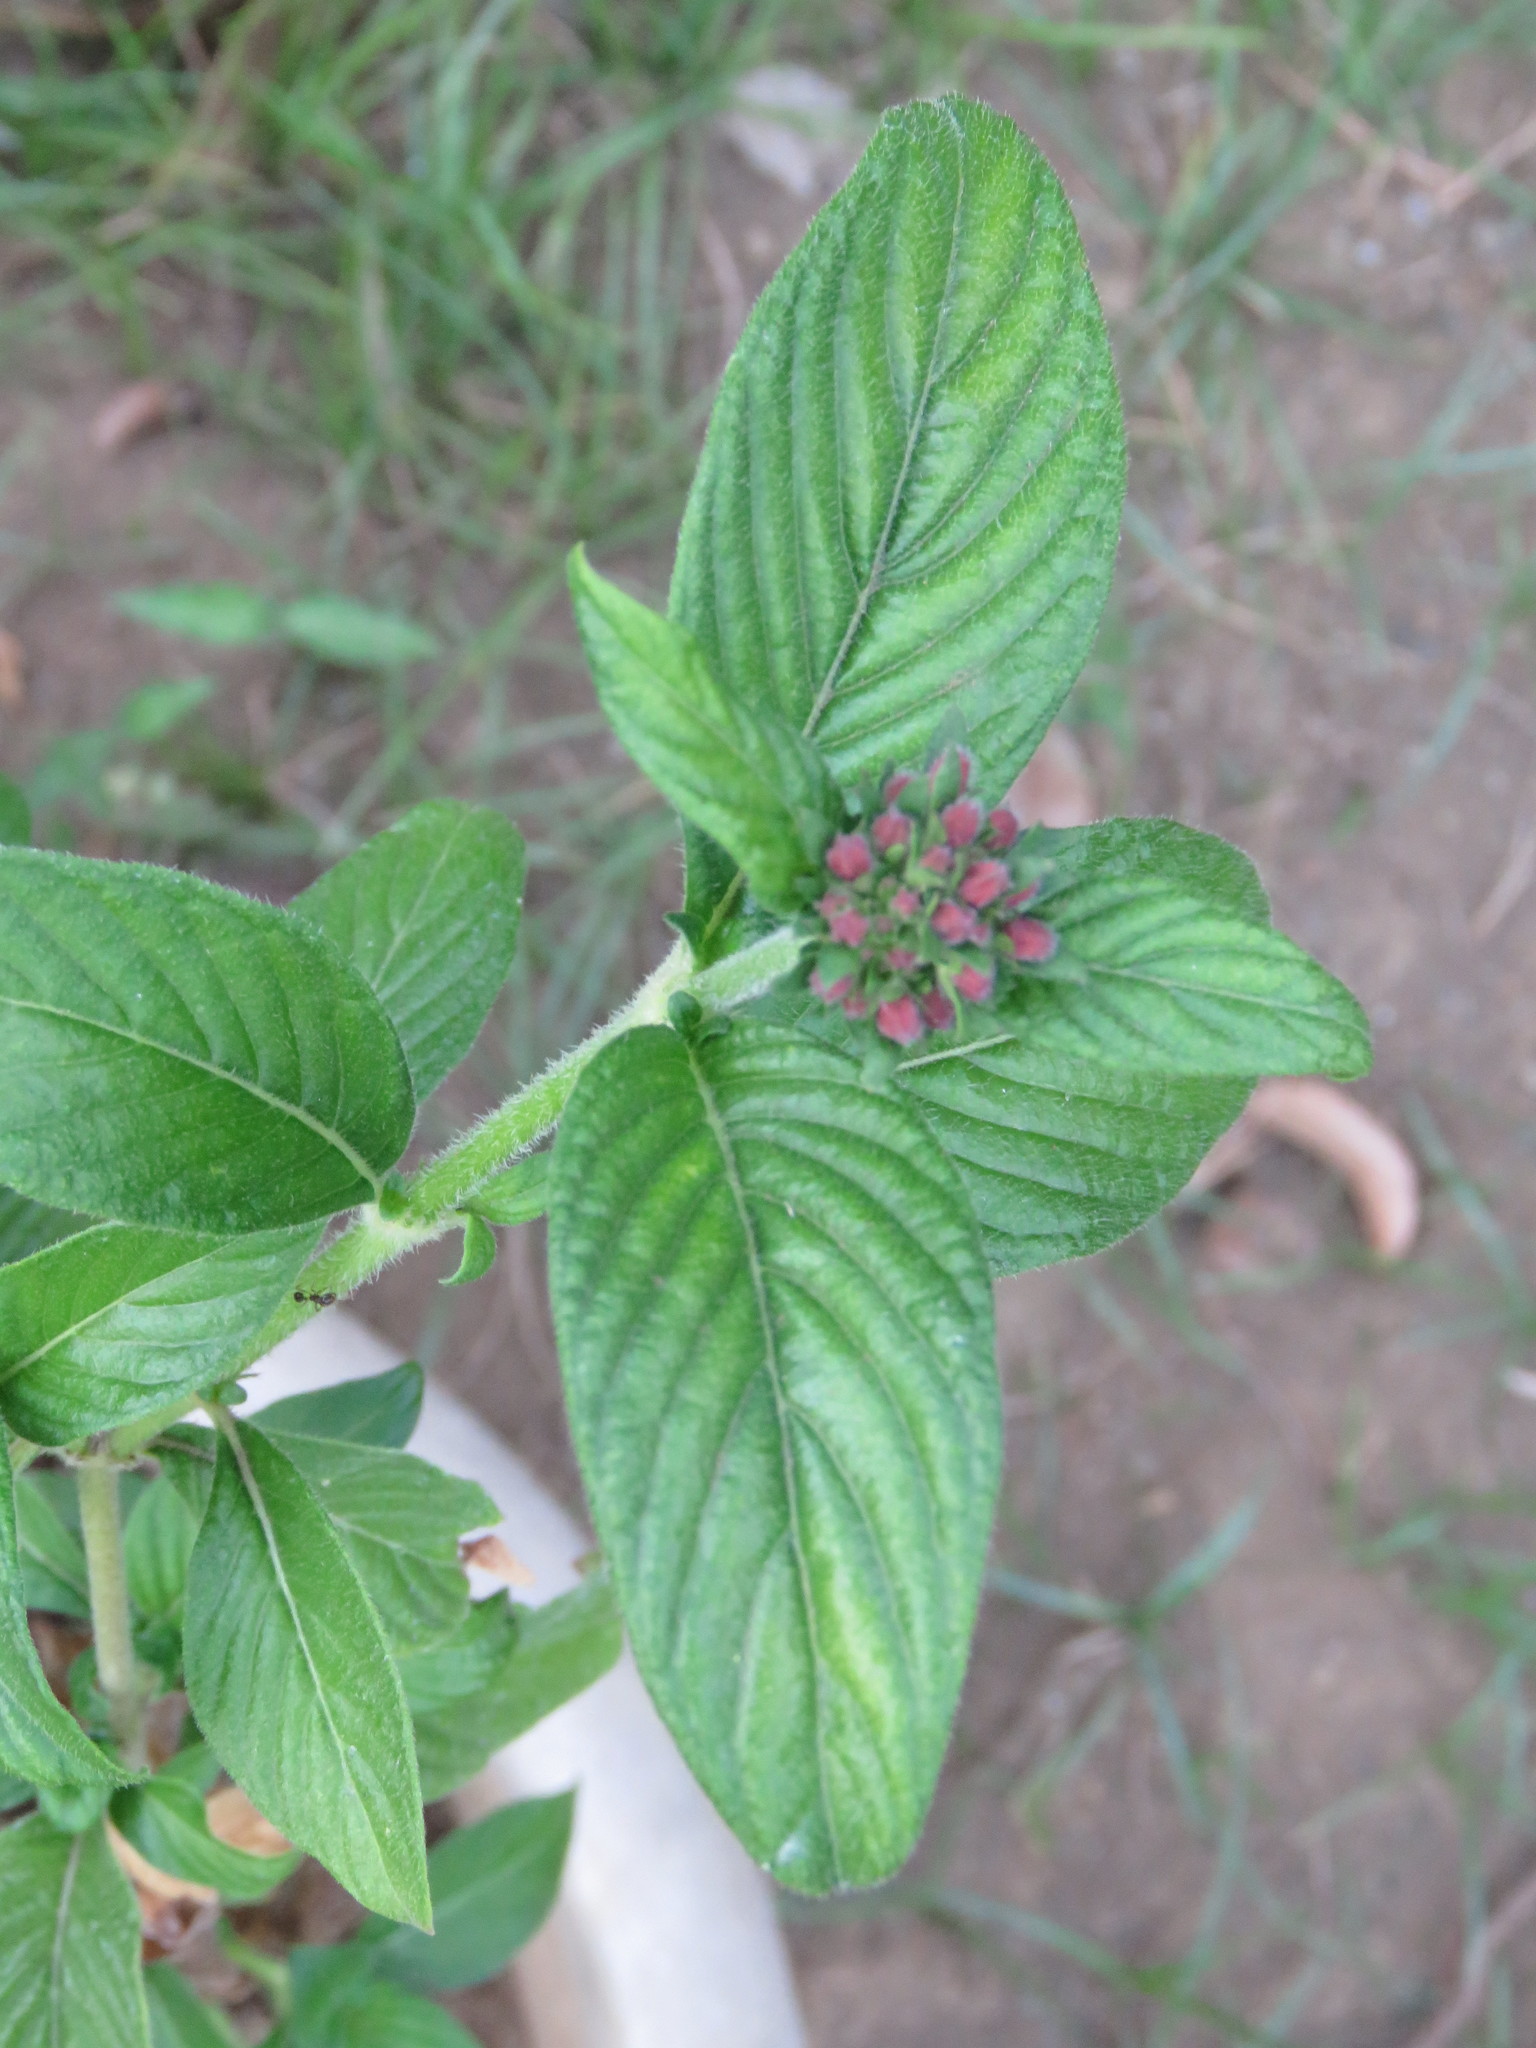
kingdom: Plantae
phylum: Tracheophyta
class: Magnoliopsida
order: Gentianales
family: Rubiaceae
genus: Pentas
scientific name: Pentas lanceolata
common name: Egyptian starcluster
